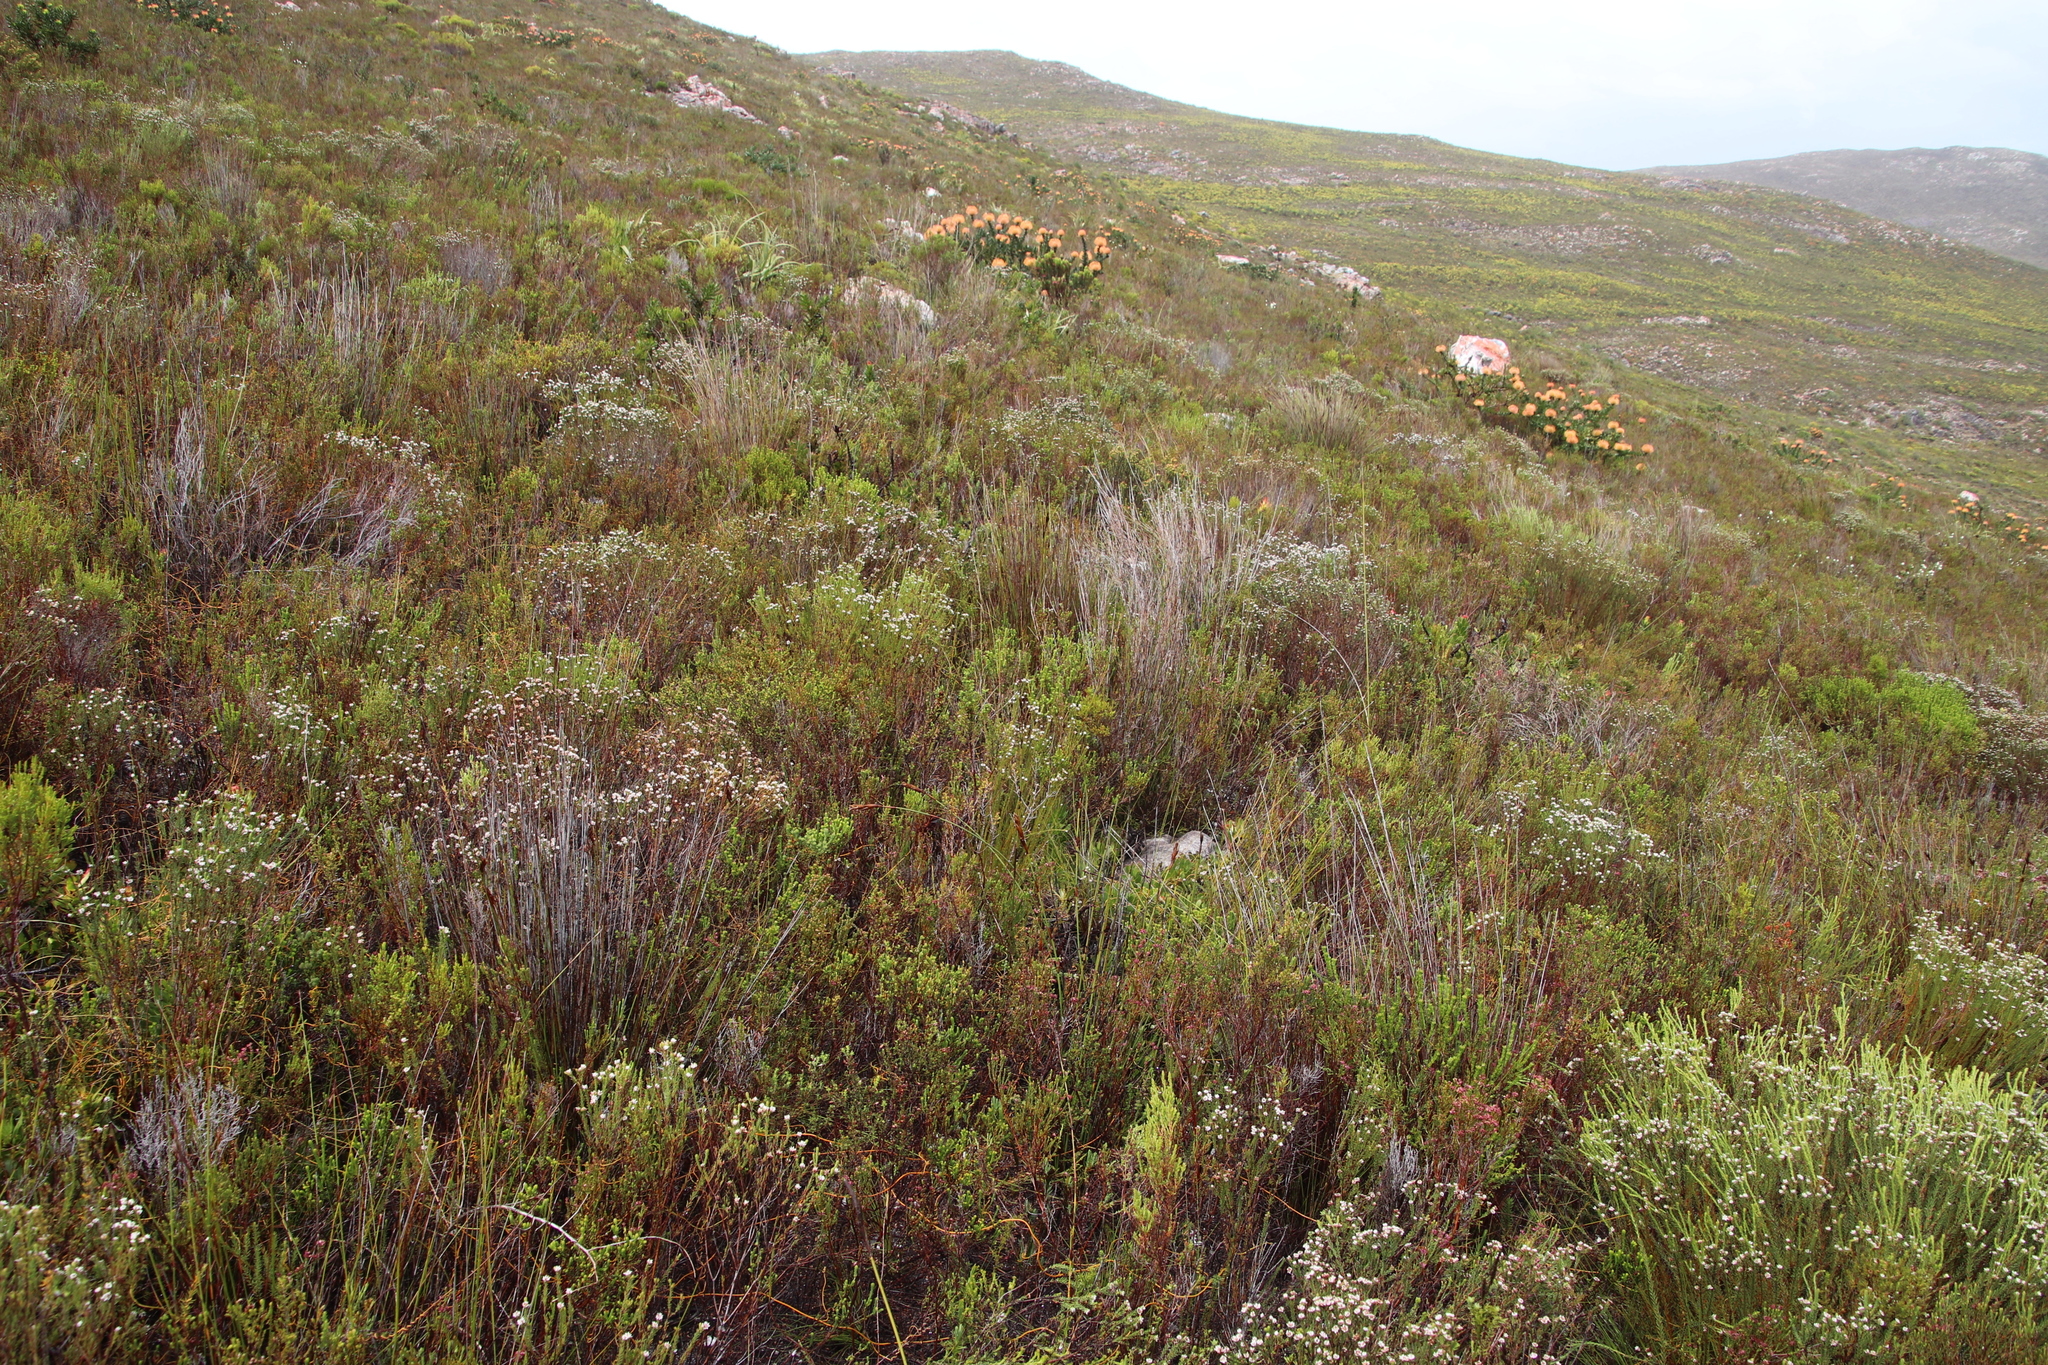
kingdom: Plantae
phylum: Tracheophyta
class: Magnoliopsida
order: Bruniales
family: Bruniaceae
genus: Staavia
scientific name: Staavia radiata
